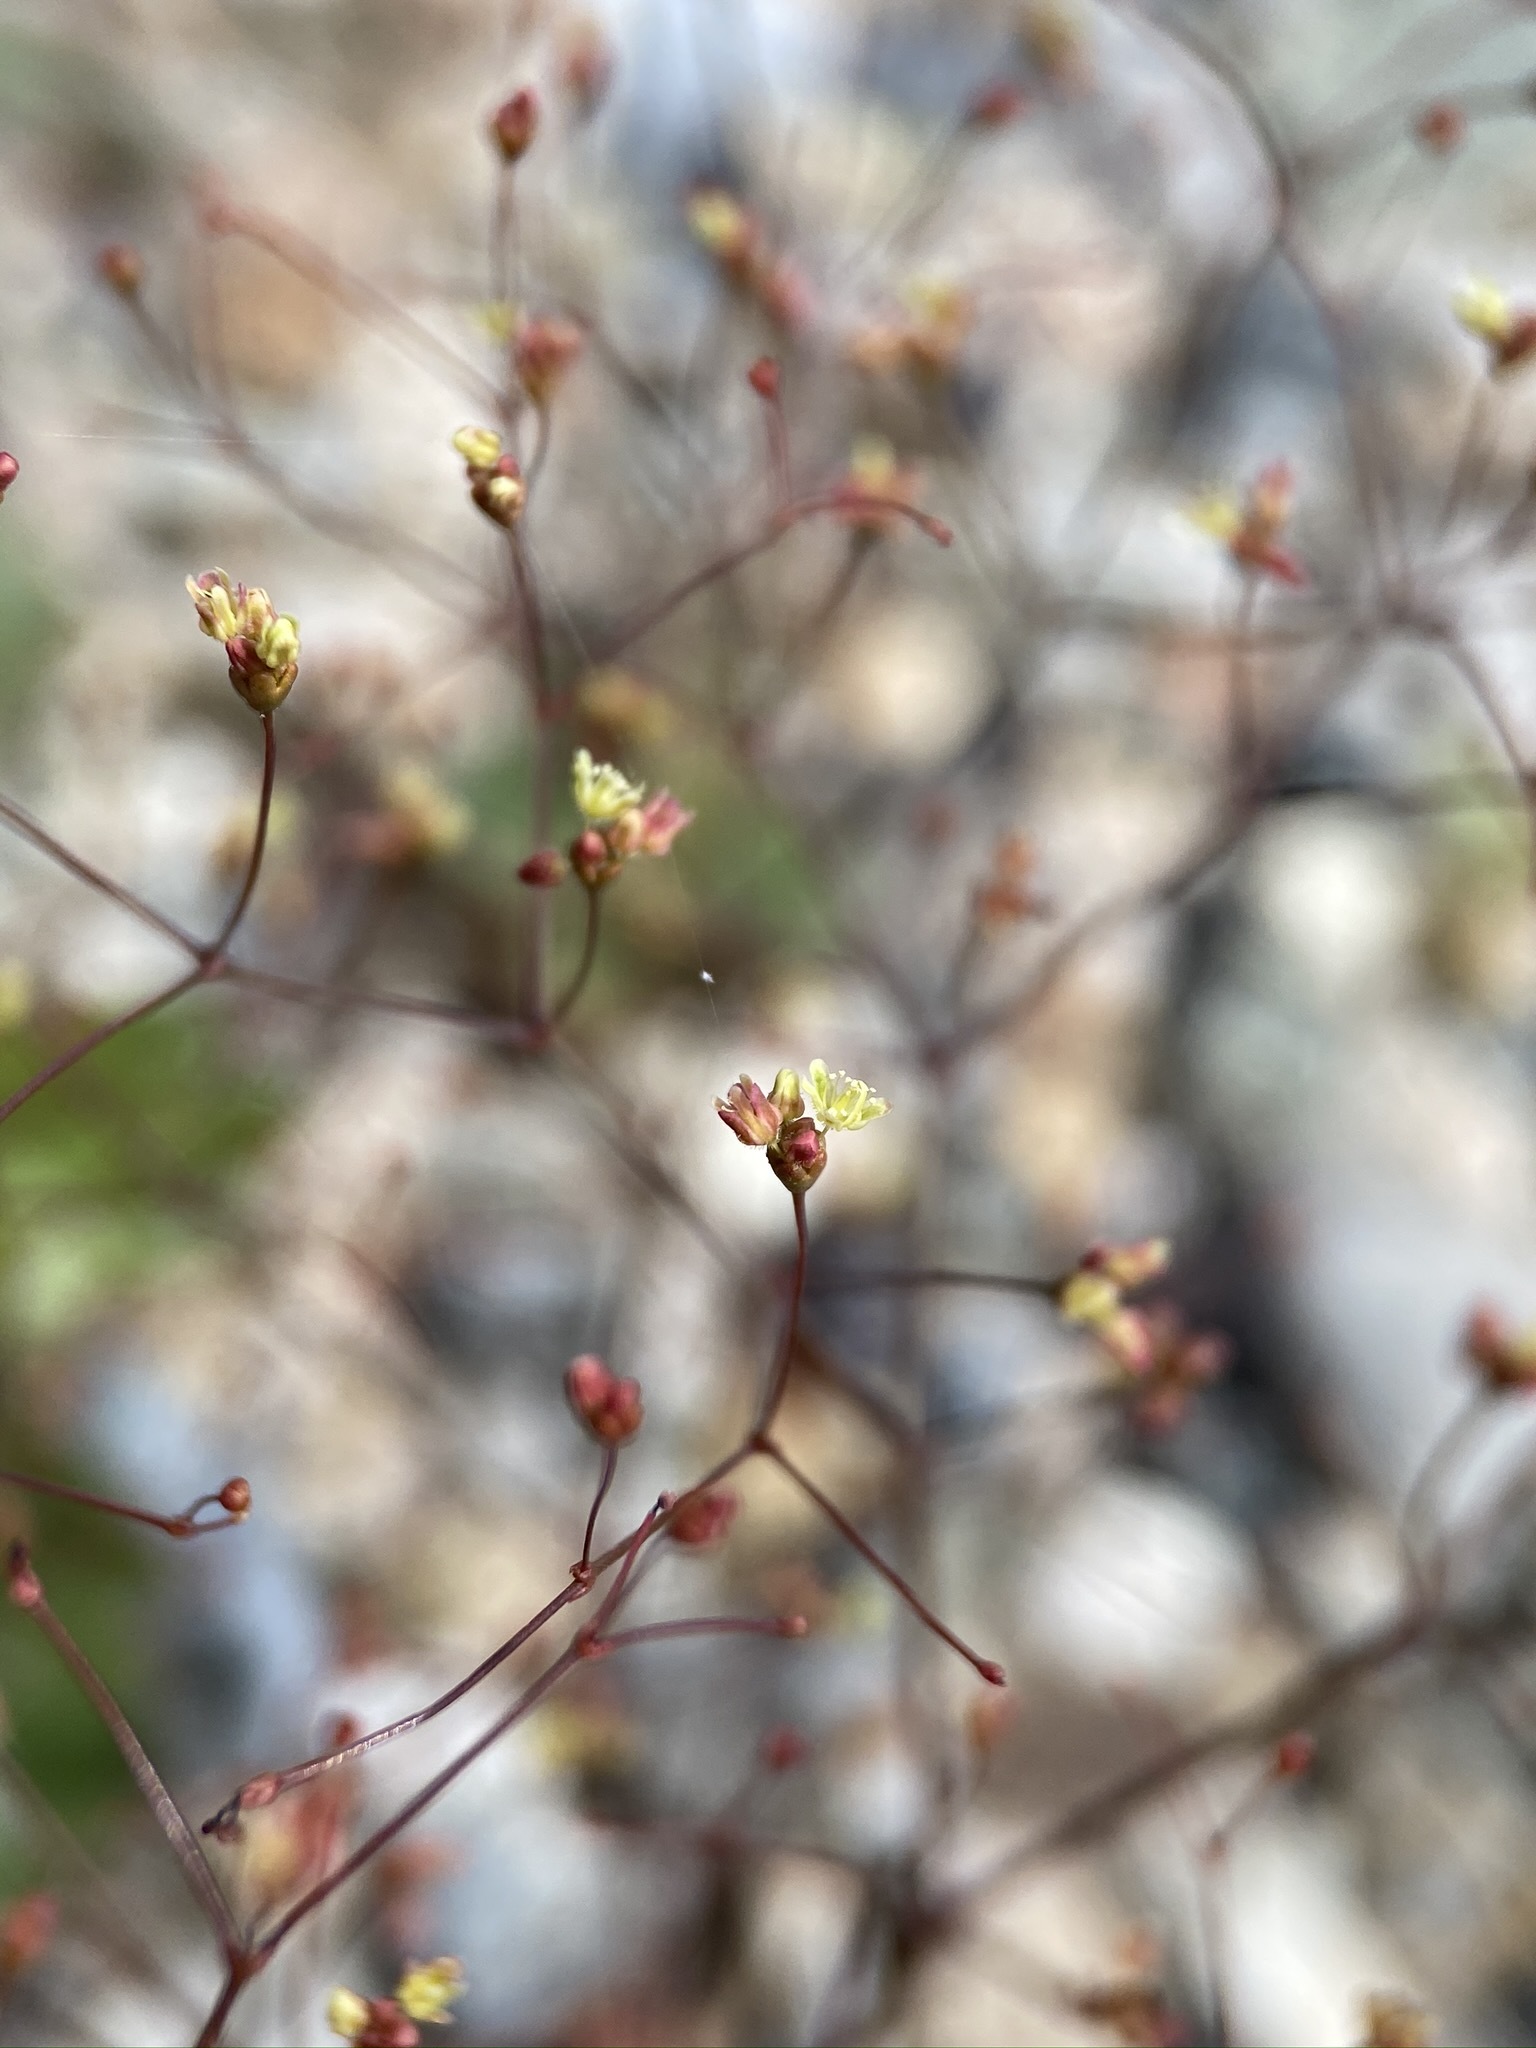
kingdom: Plantae
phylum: Tracheophyta
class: Magnoliopsida
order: Caryophyllales
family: Polygonaceae
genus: Eriogonum
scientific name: Eriogonum thomasii
